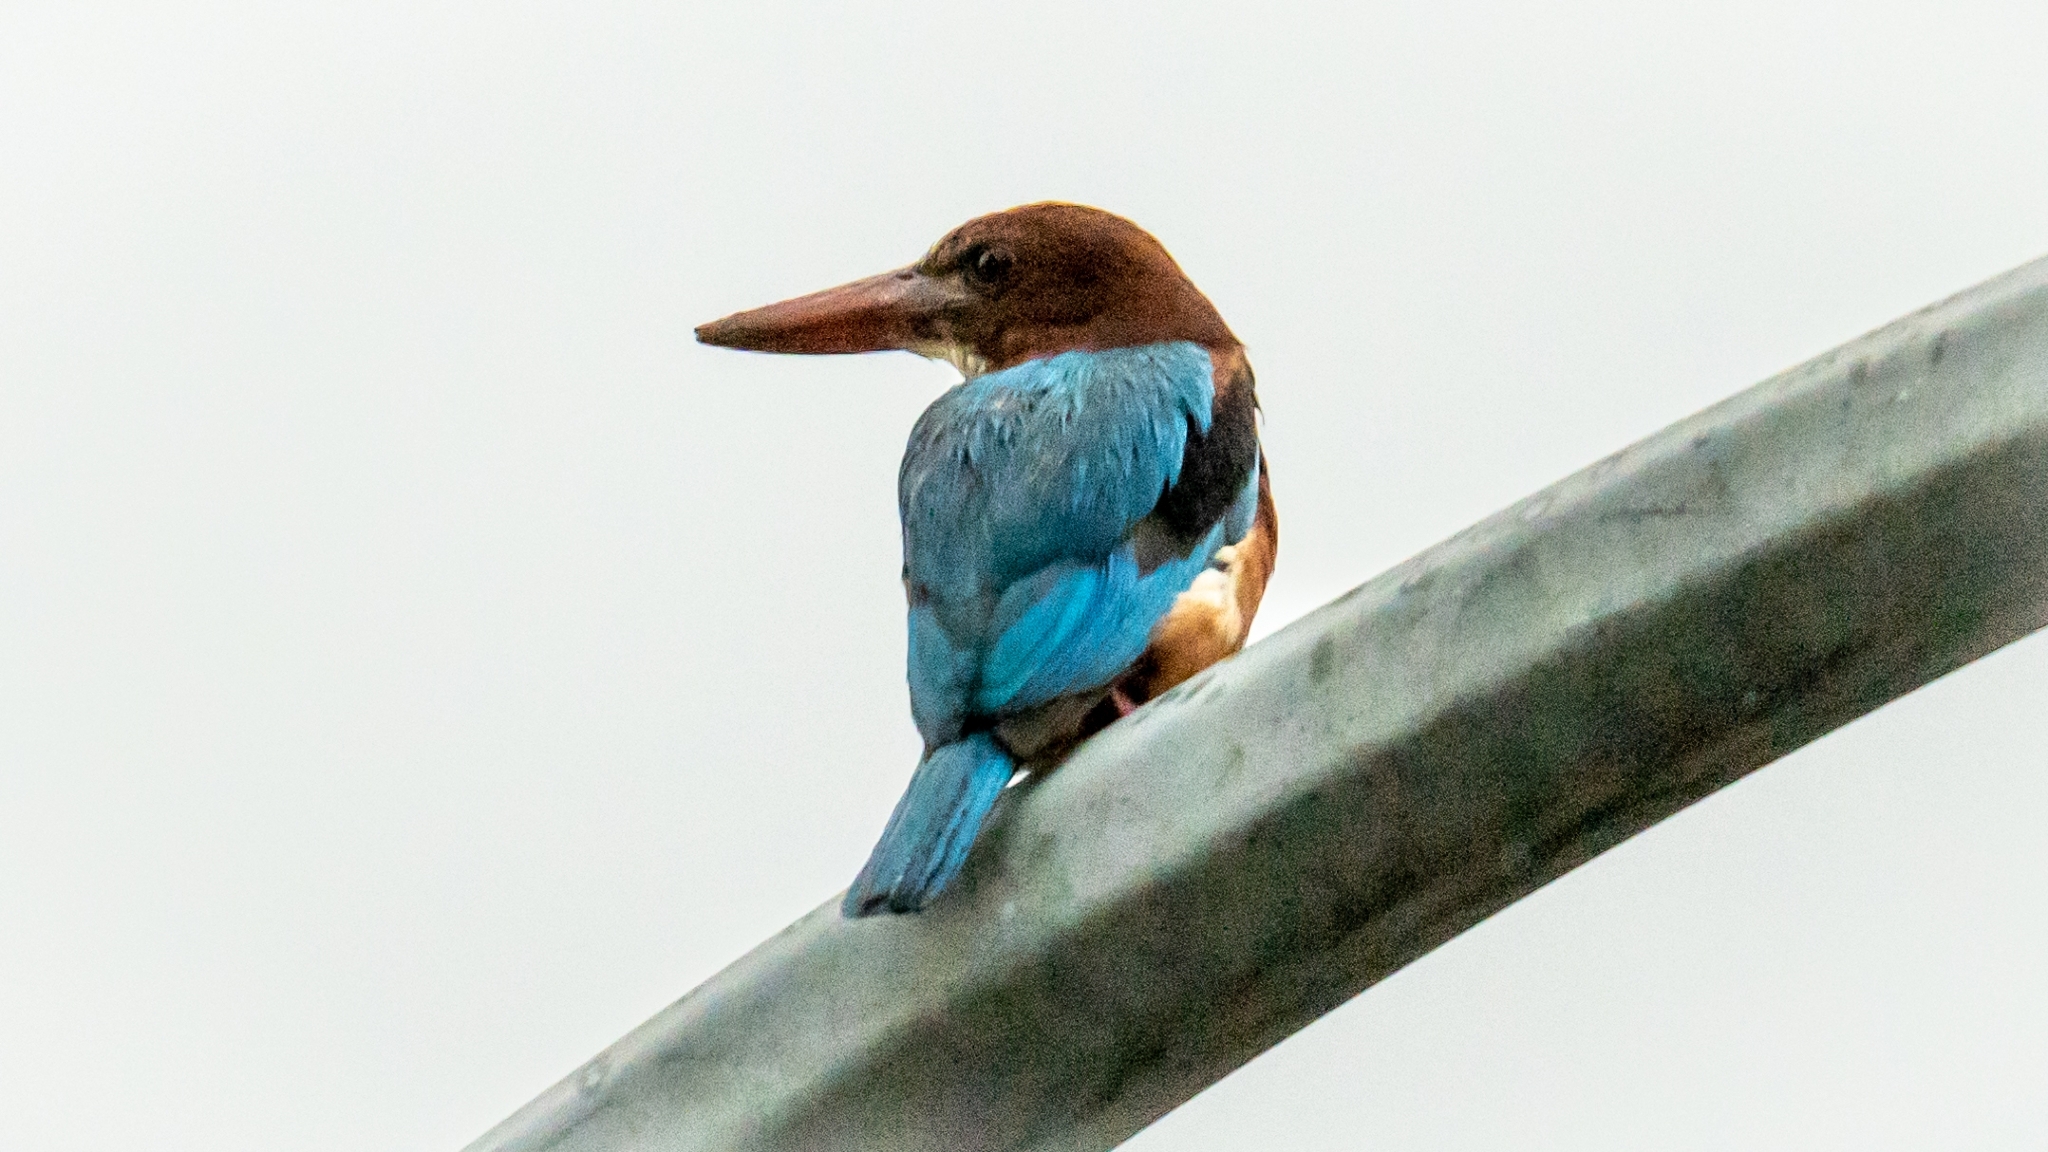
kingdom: Animalia
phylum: Chordata
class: Aves
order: Coraciiformes
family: Alcedinidae
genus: Halcyon
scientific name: Halcyon smyrnensis
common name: White-throated kingfisher
